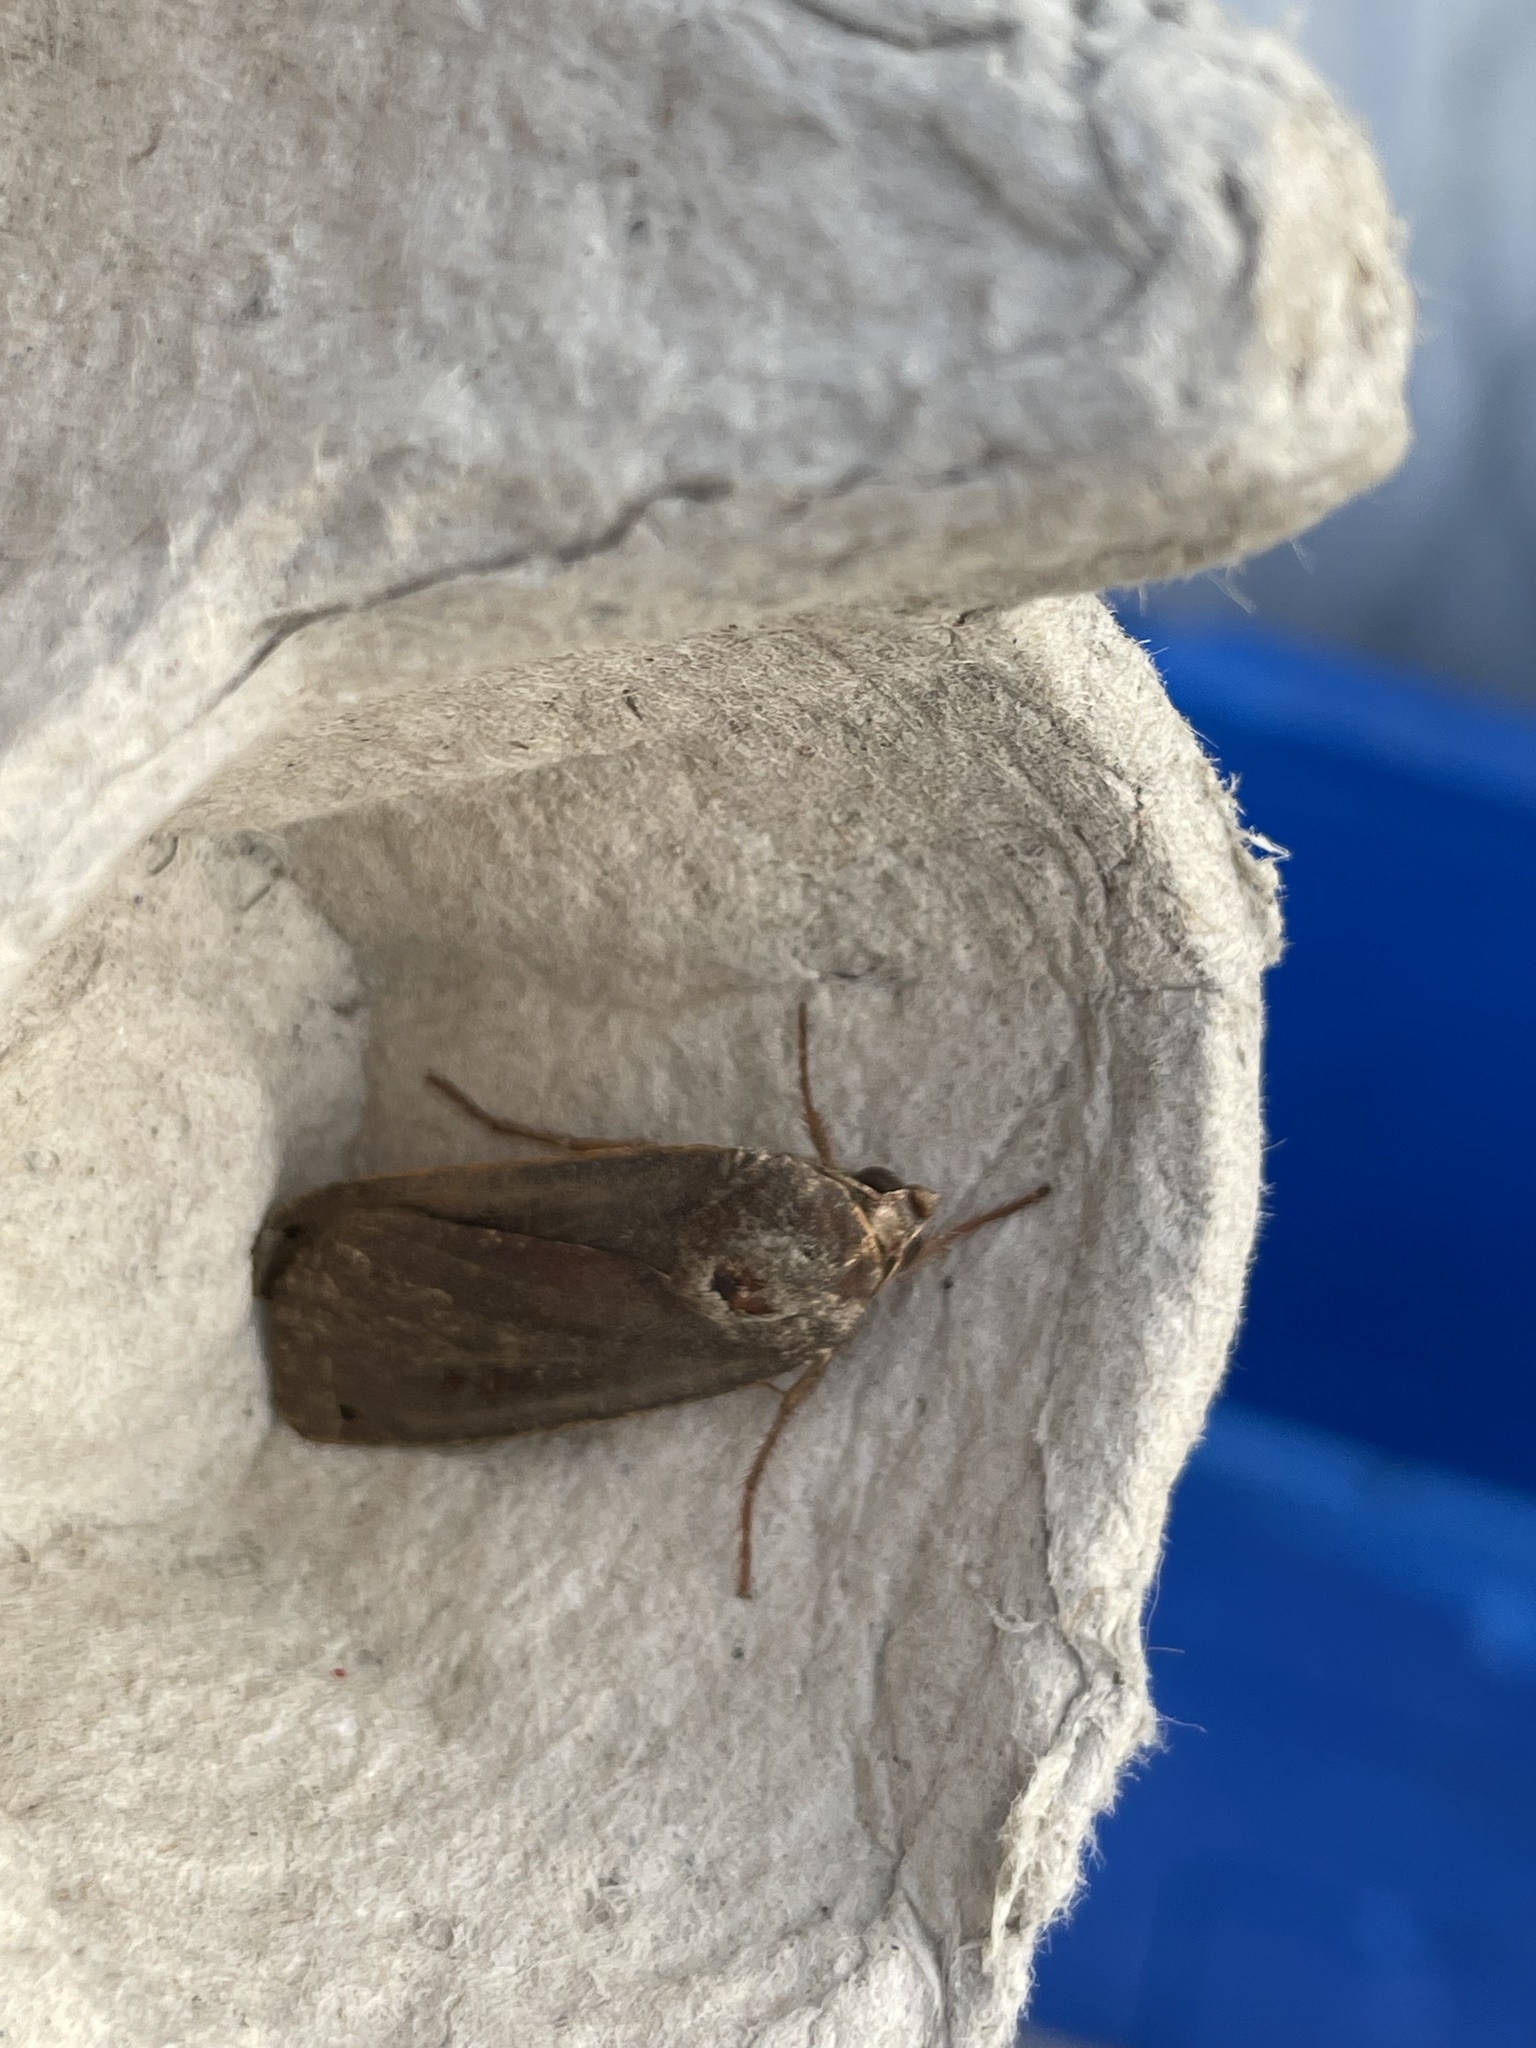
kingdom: Animalia
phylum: Arthropoda
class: Insecta
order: Lepidoptera
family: Noctuidae
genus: Noctua
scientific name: Noctua pronuba
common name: Large yellow underwing
